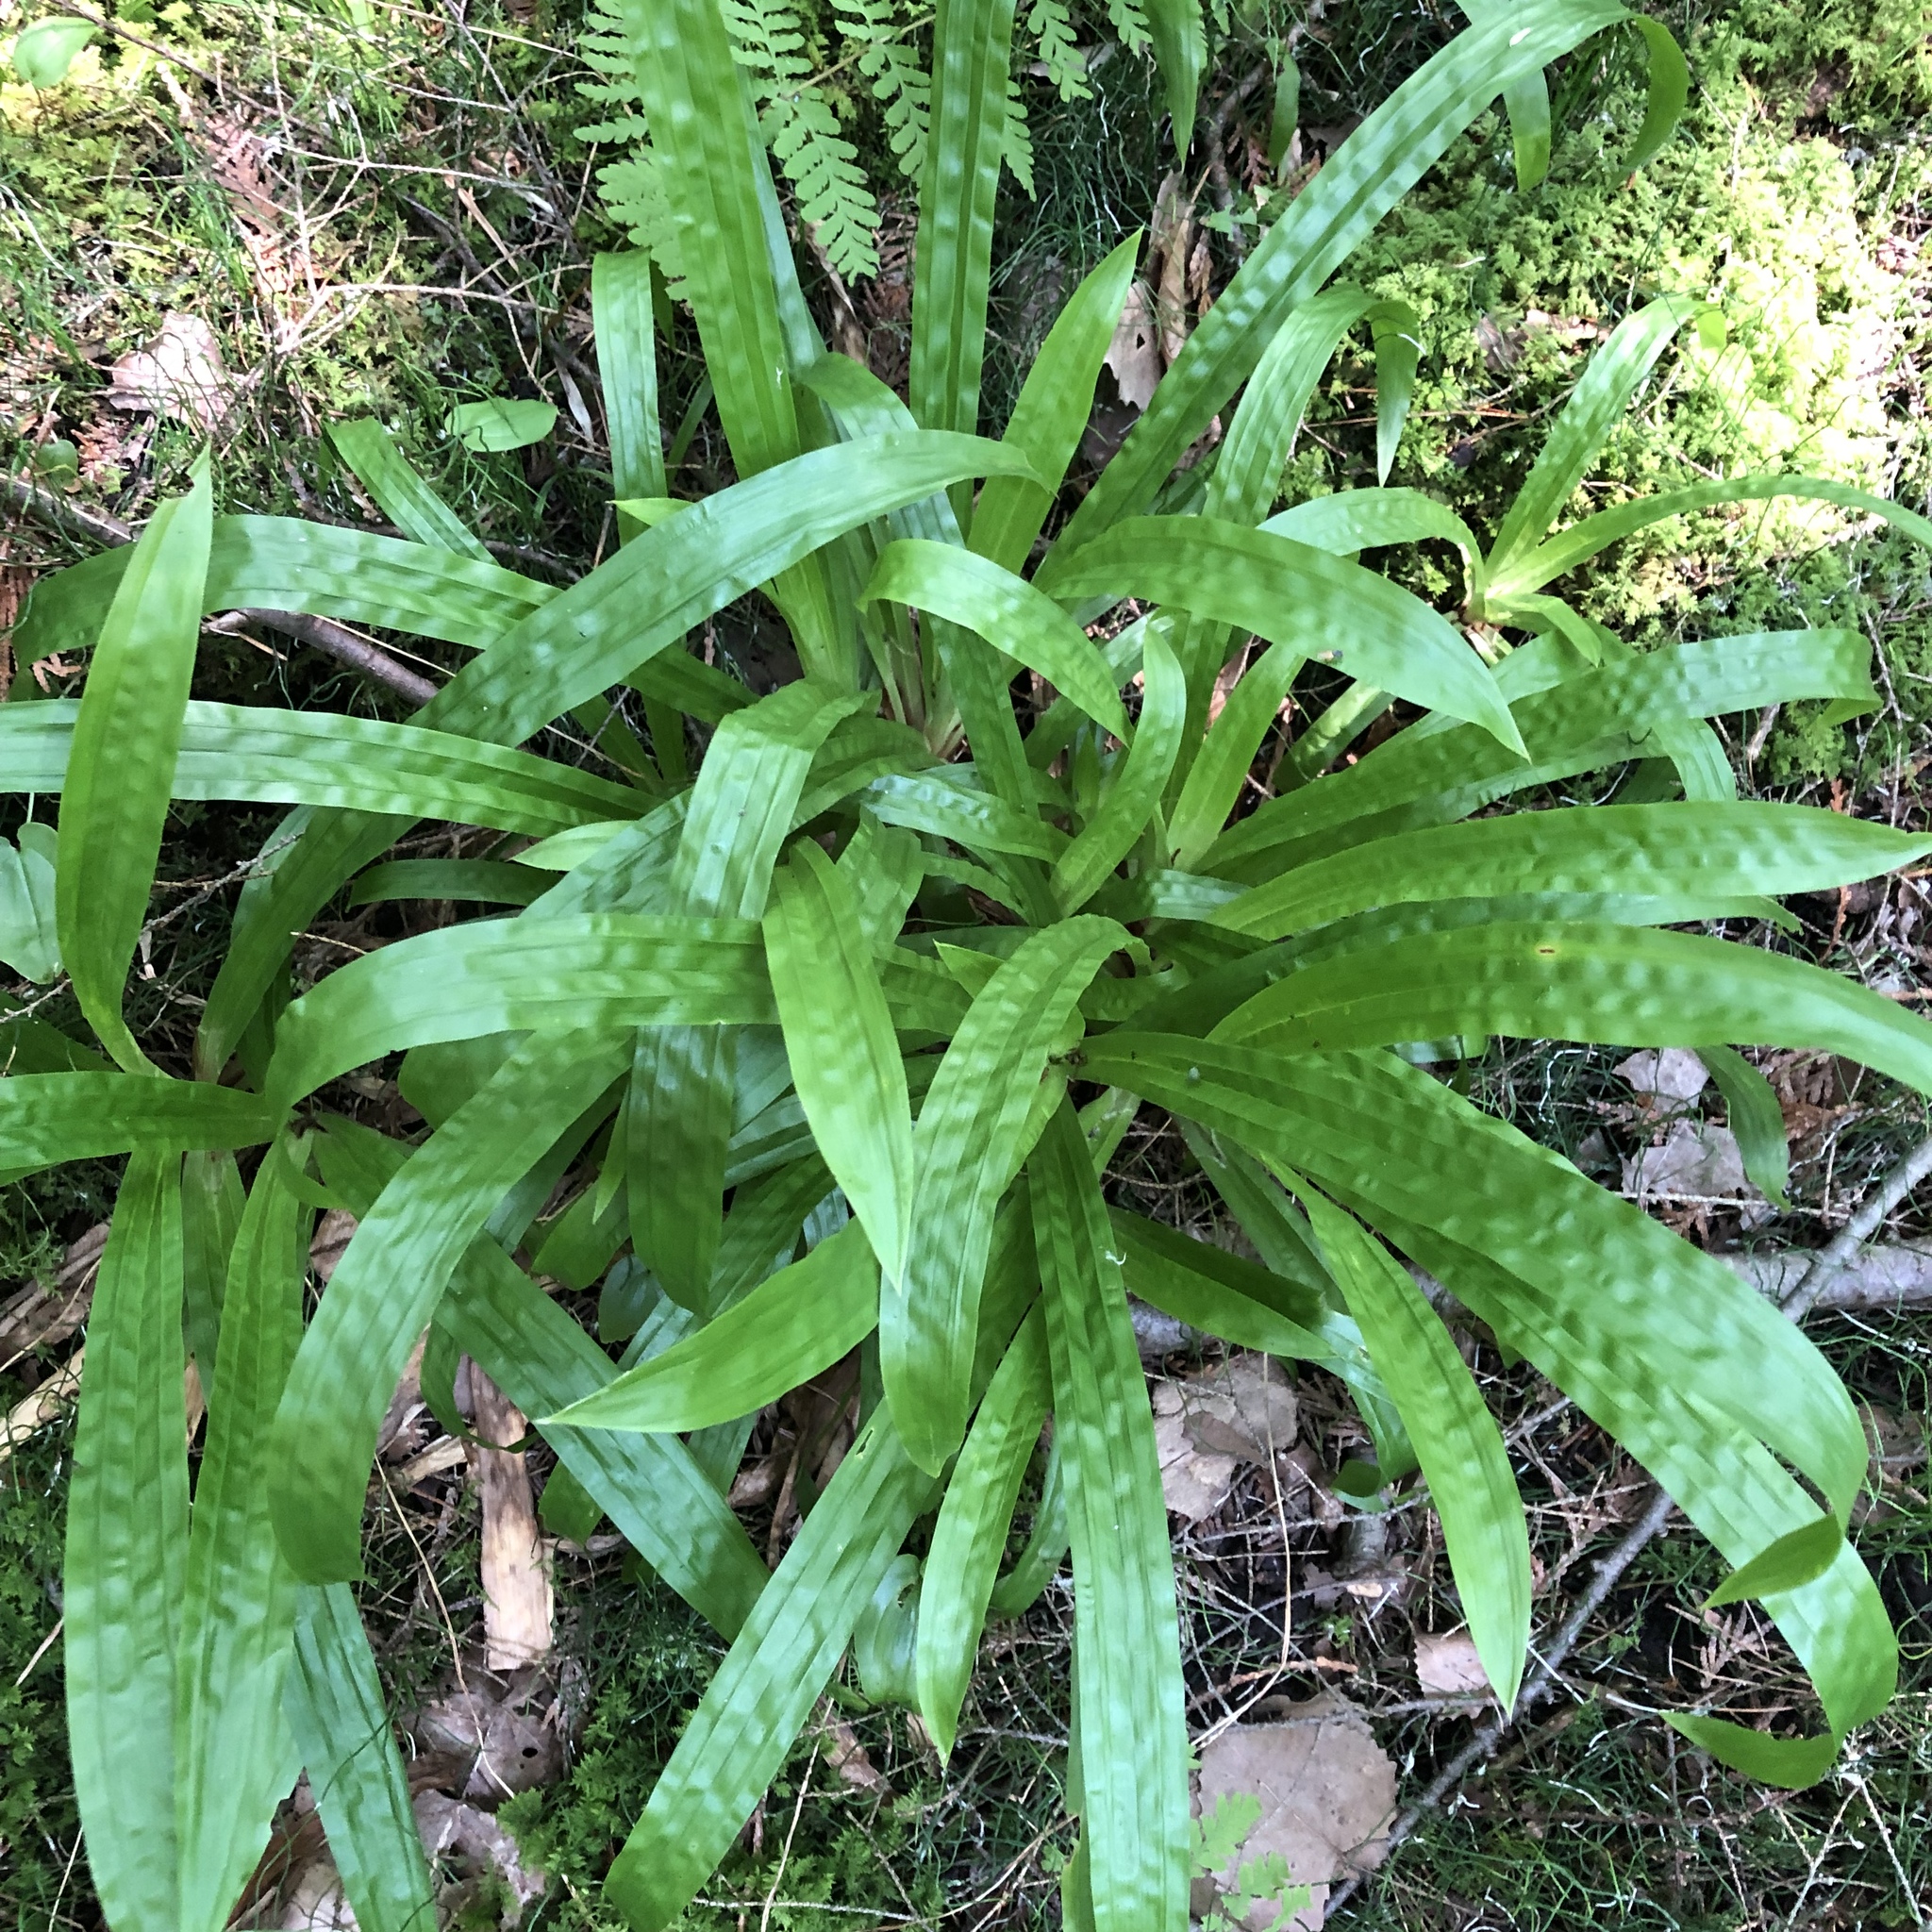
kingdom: Plantae
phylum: Tracheophyta
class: Liliopsida
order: Poales
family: Cyperaceae
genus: Carex
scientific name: Carex plantaginea
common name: Plantain-leaved sedge
